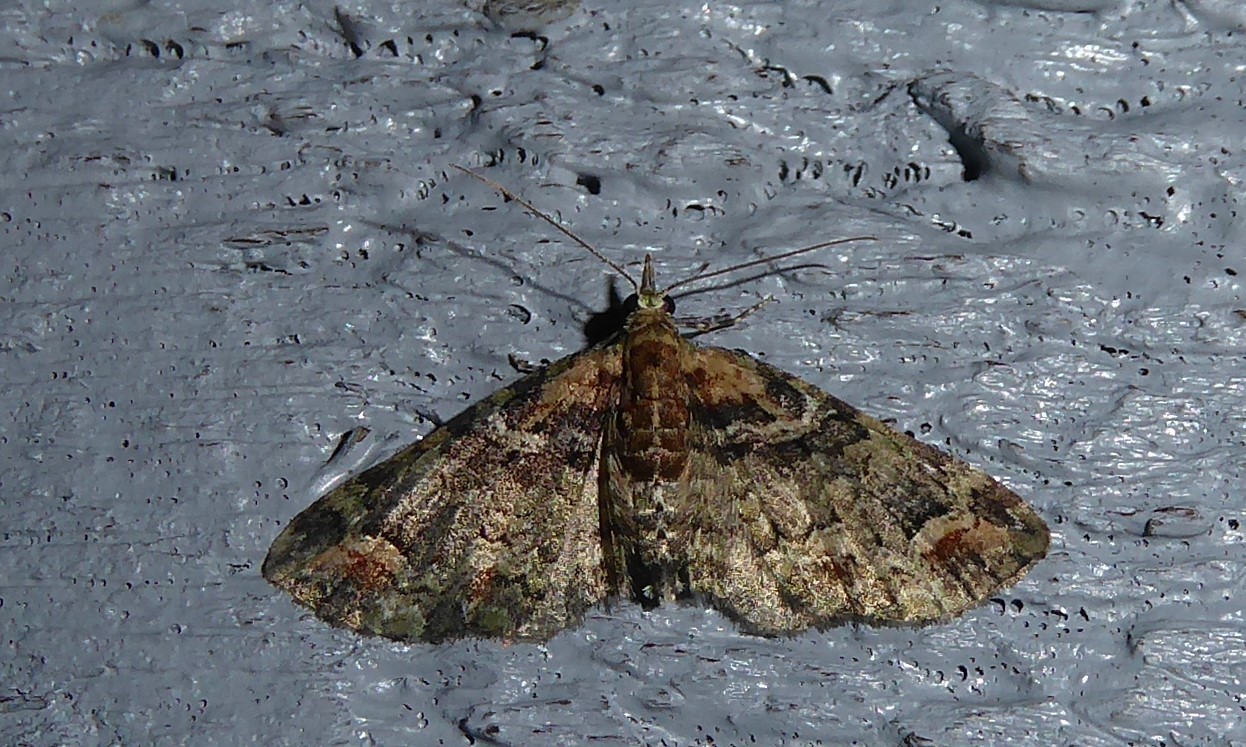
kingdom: Animalia
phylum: Arthropoda
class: Insecta
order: Lepidoptera
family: Geometridae
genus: Idaea
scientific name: Idaea mutanda
